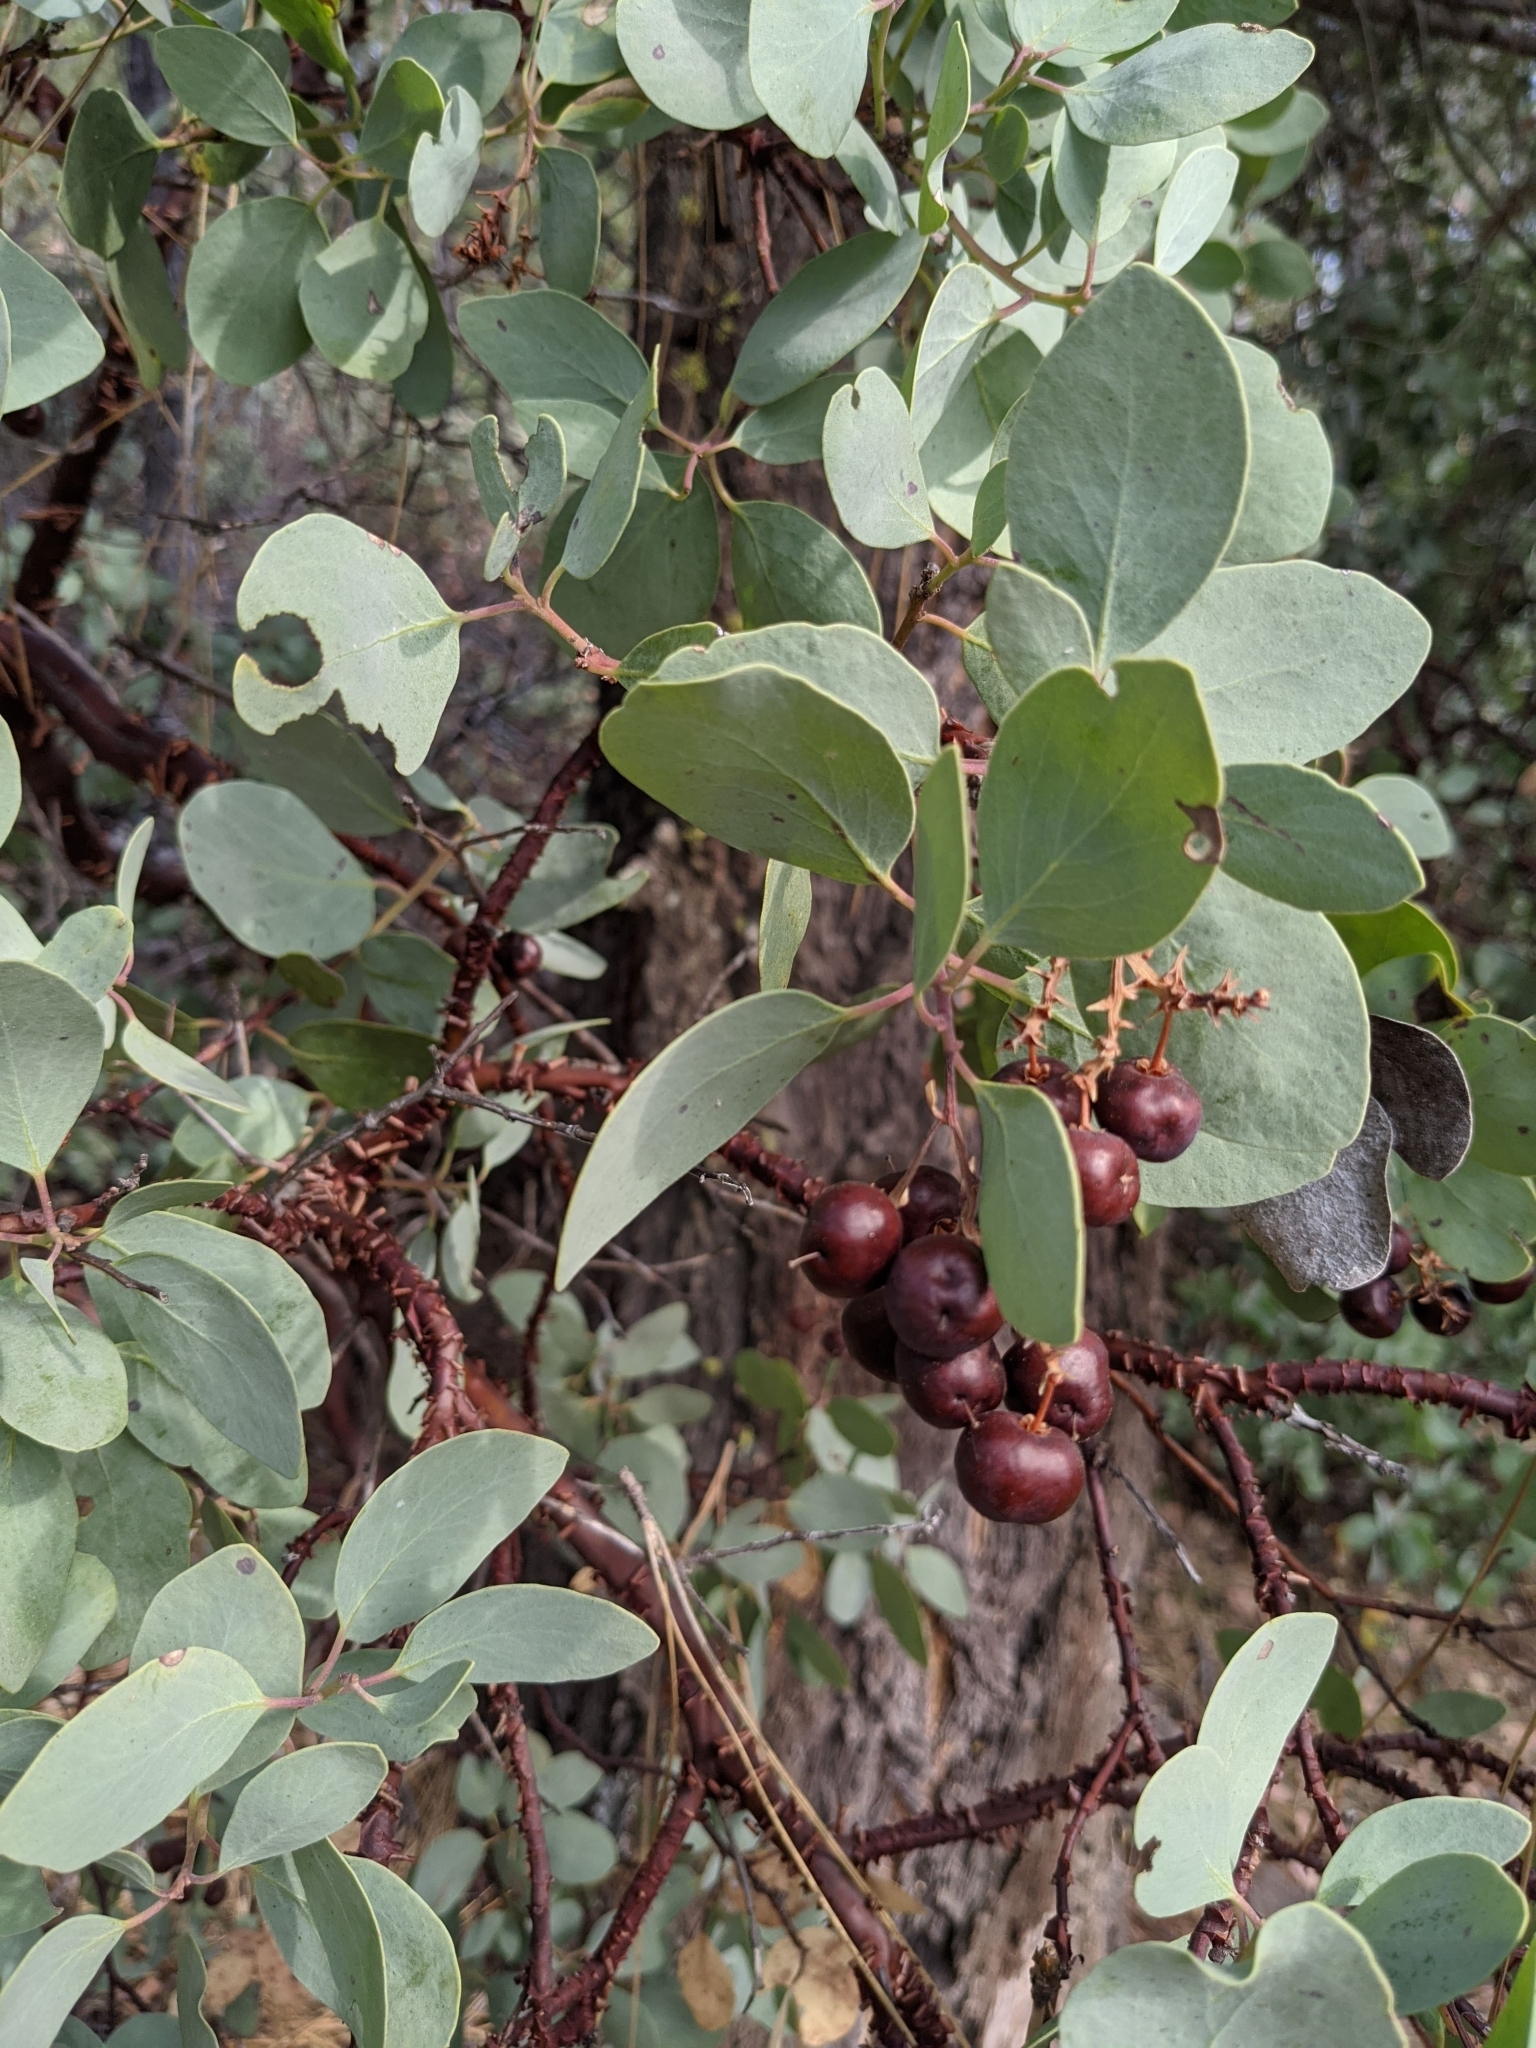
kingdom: Plantae
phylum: Tracheophyta
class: Magnoliopsida
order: Ericales
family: Ericaceae
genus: Arctostaphylos
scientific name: Arctostaphylos mewukka
